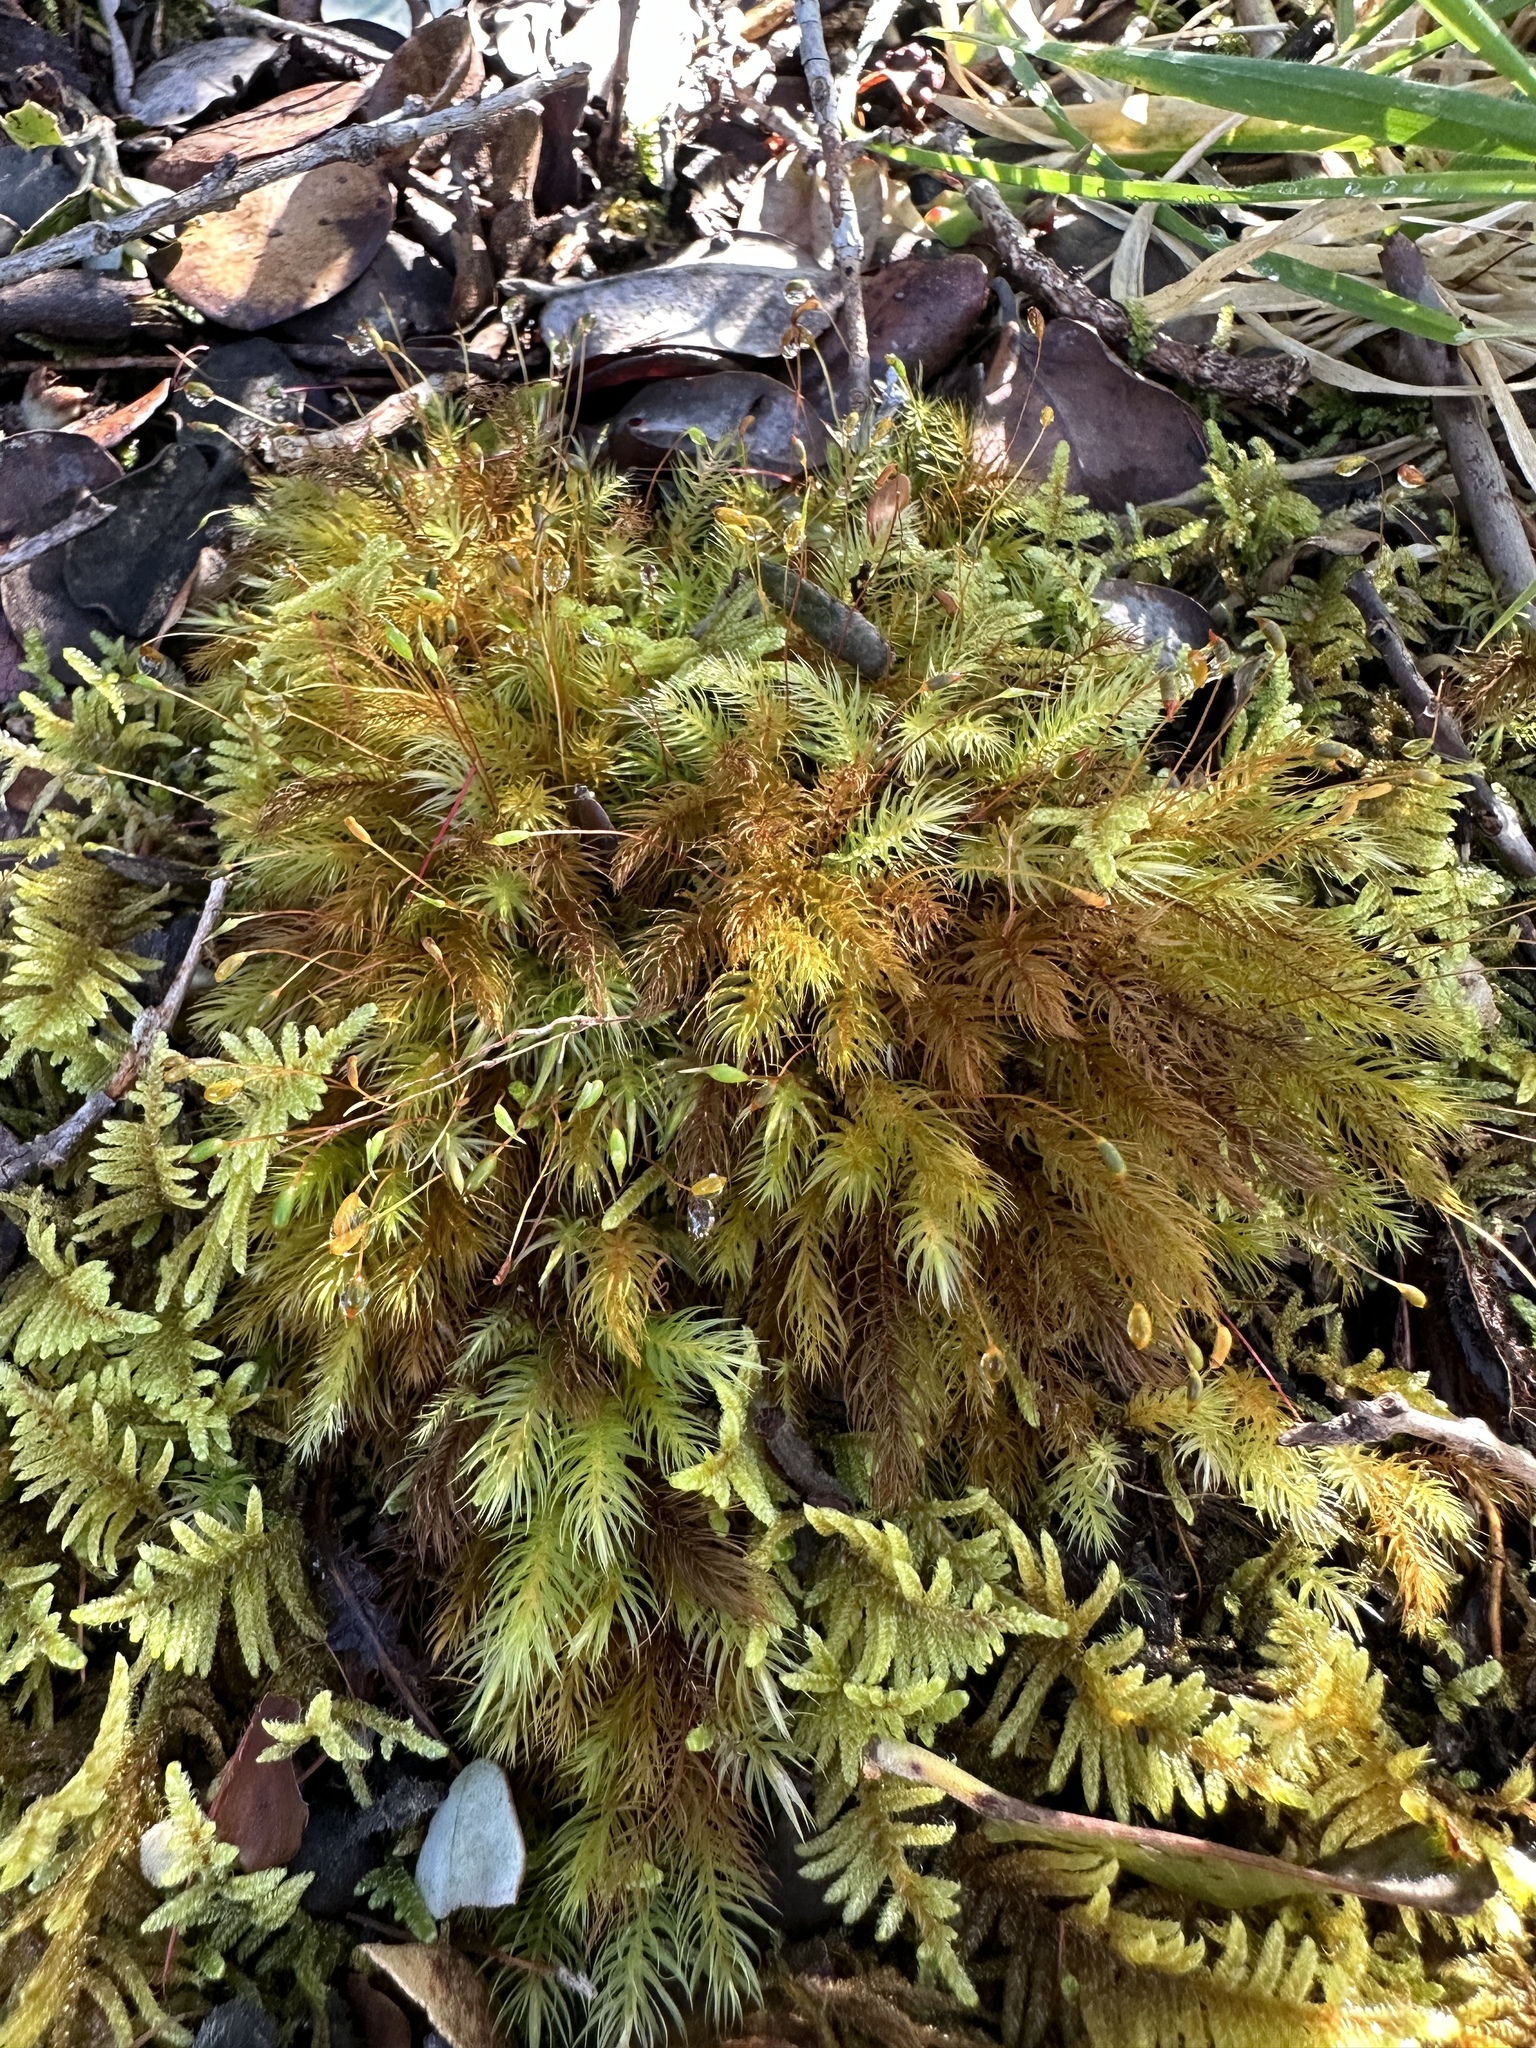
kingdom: Plantae
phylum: Bryophyta
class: Bryopsida
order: Rhizogoniales
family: Calomniaceae
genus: Pyrrhobryum
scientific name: Pyrrhobryum spiniforme
